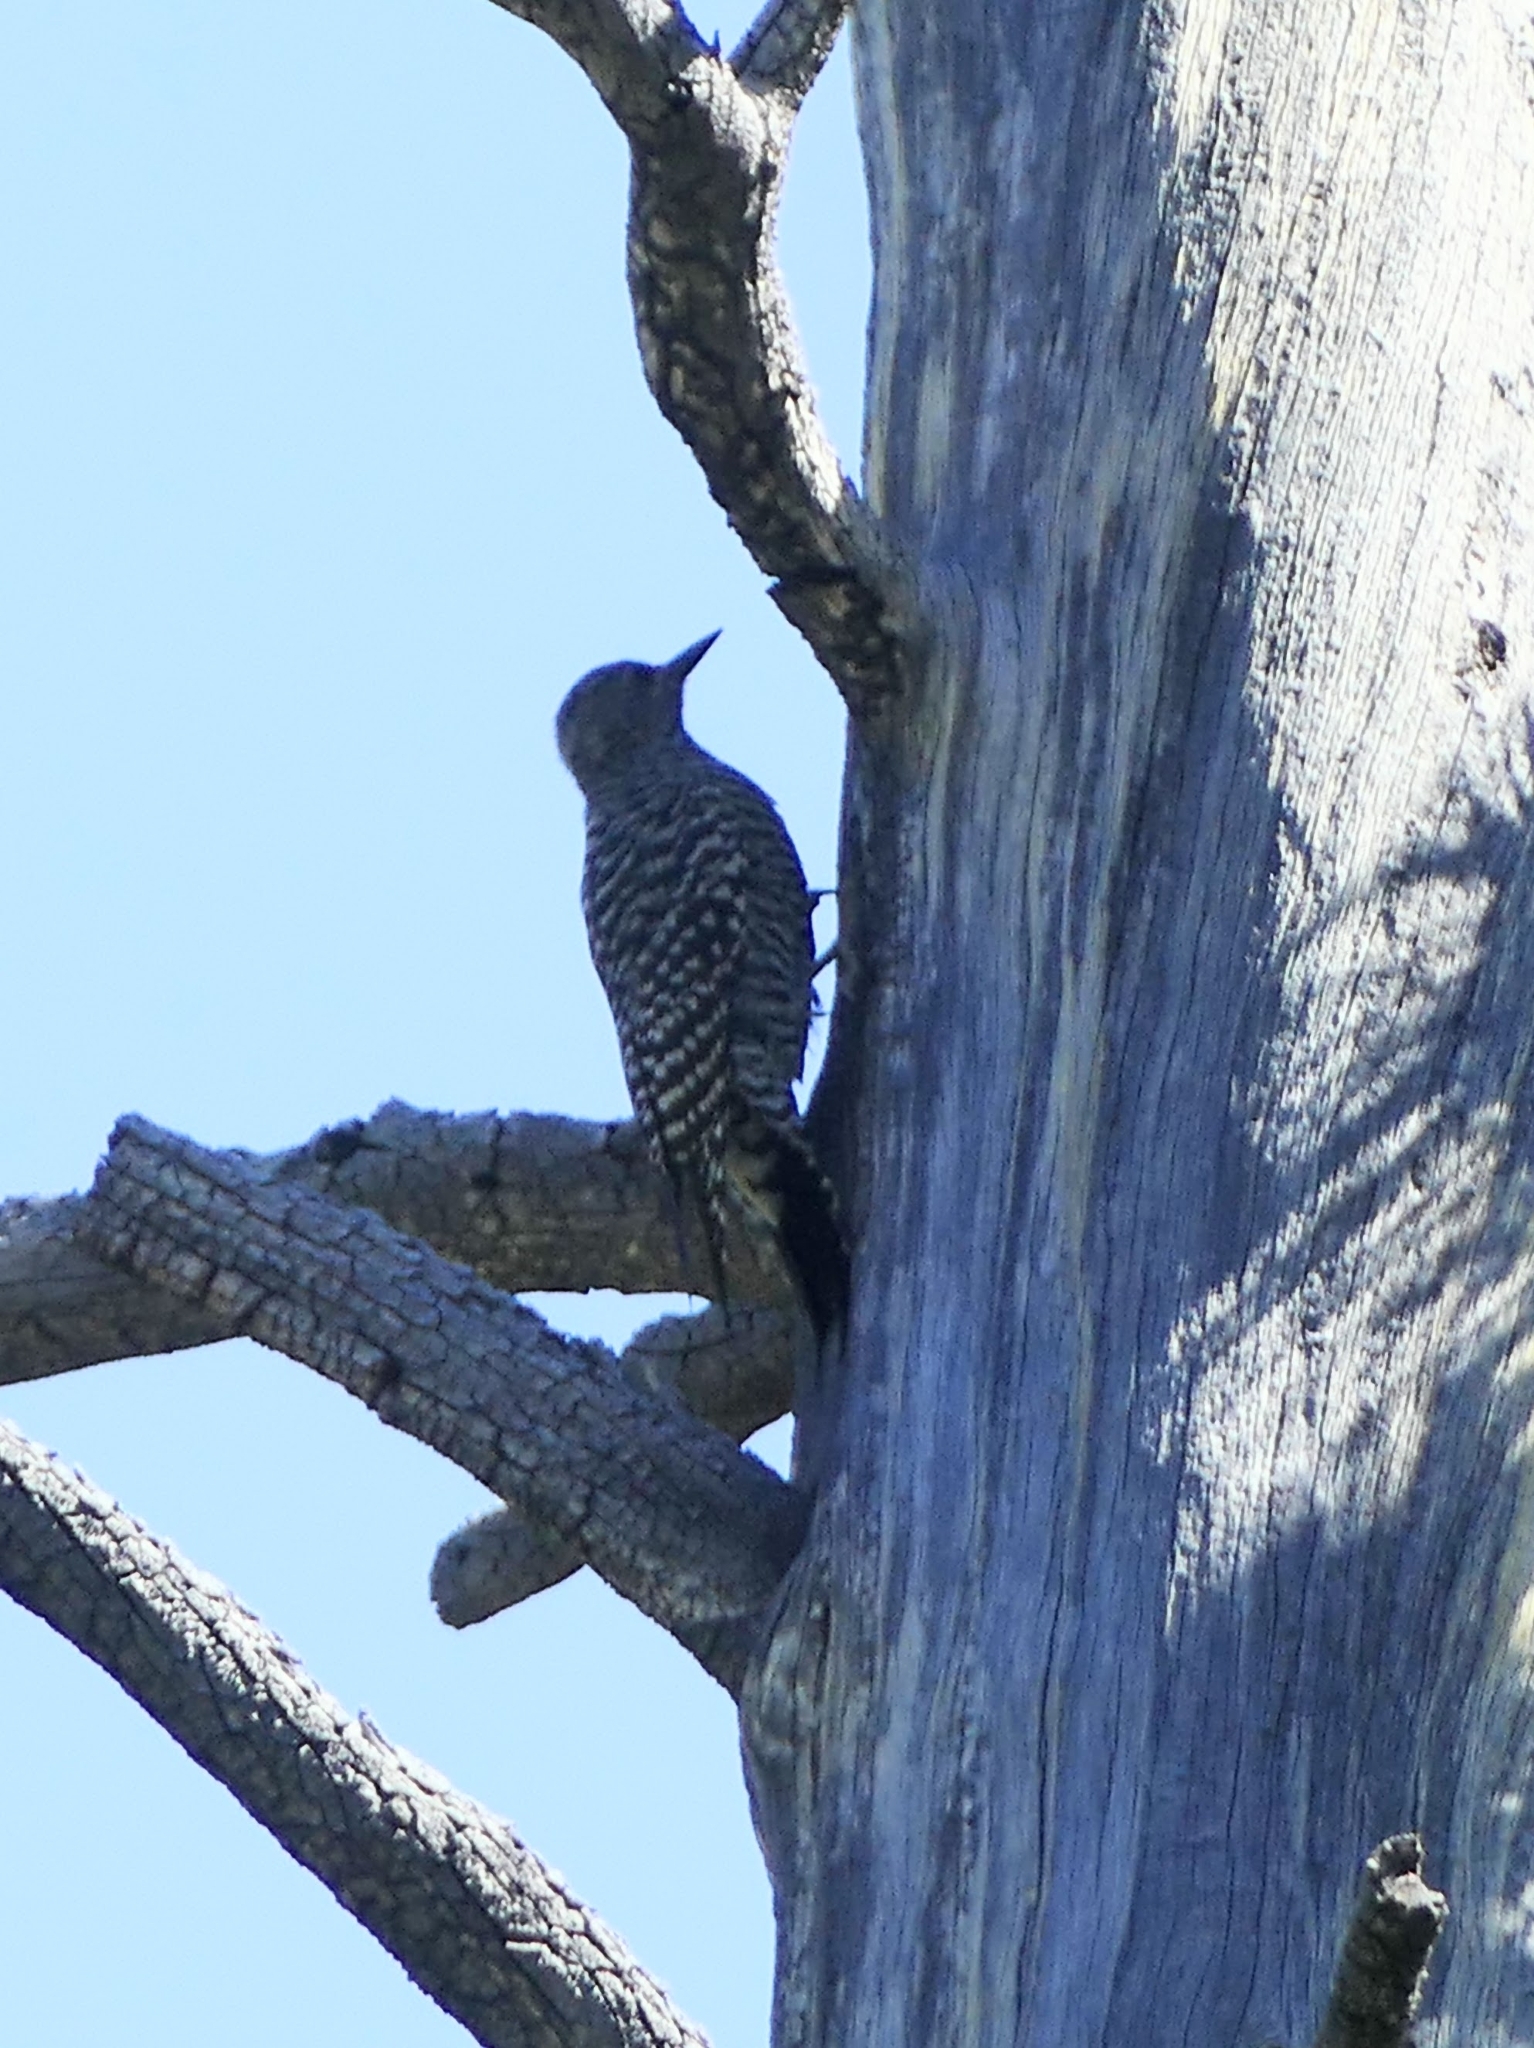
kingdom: Animalia
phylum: Chordata
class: Aves
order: Piciformes
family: Picidae
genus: Sphyrapicus
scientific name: Sphyrapicus thyroideus
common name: Williamson's sapsucker
